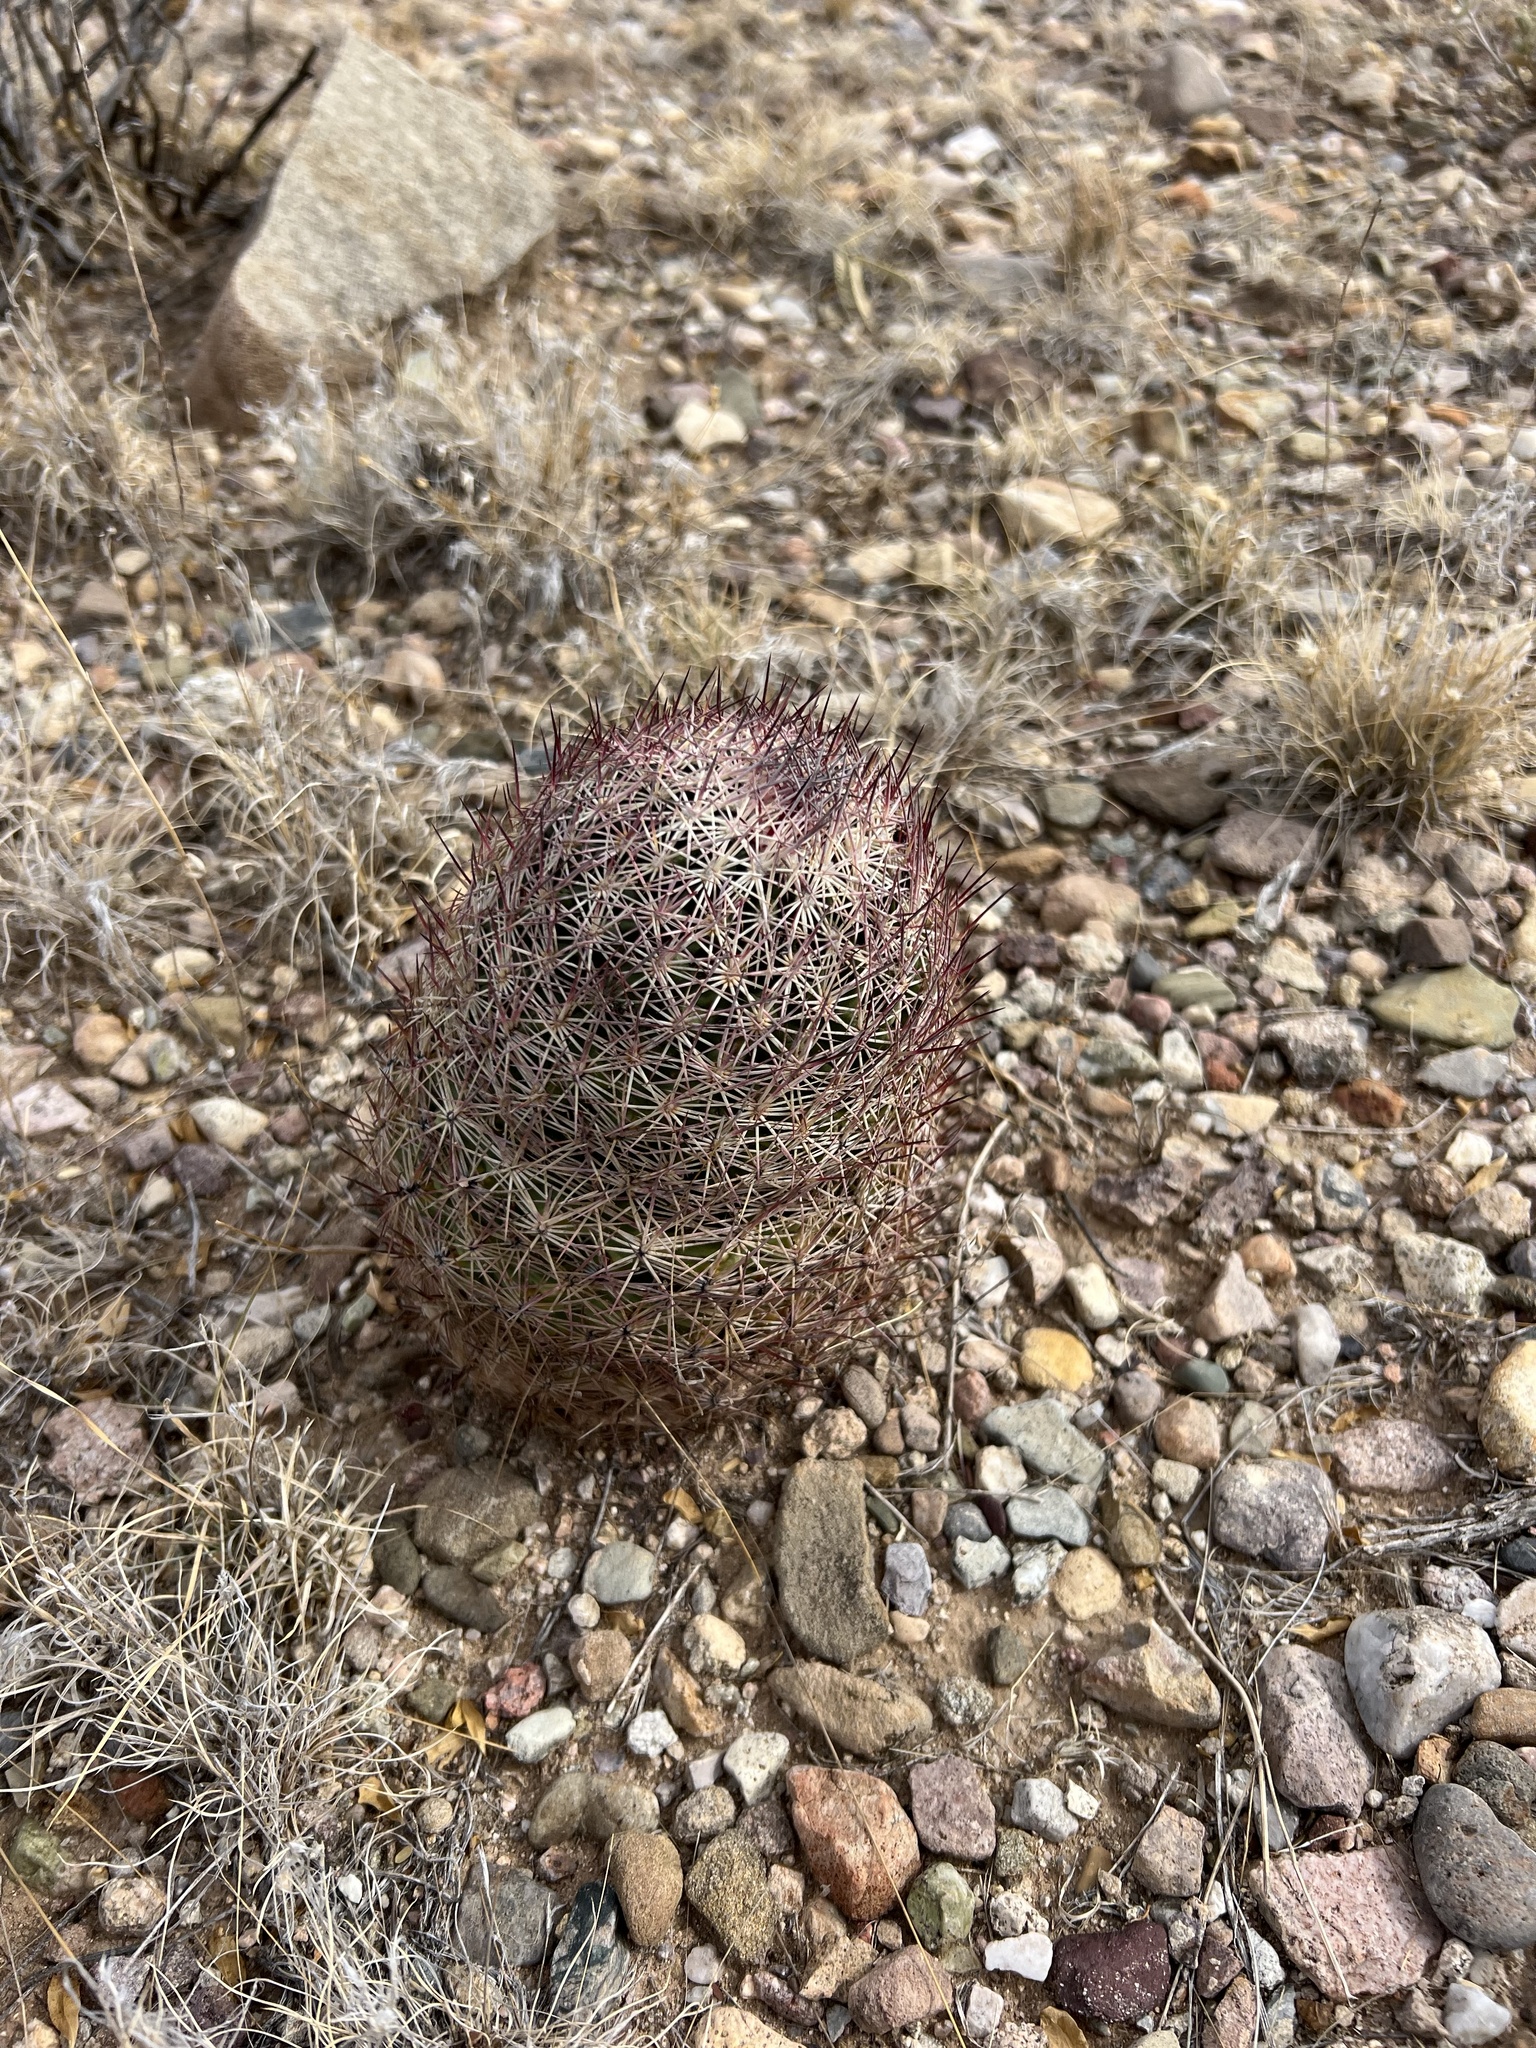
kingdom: Plantae
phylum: Tracheophyta
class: Magnoliopsida
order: Caryophyllales
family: Cactaceae
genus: Sclerocactus
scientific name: Sclerocactus johnsonii
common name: Eight-spine fishhook cactus
